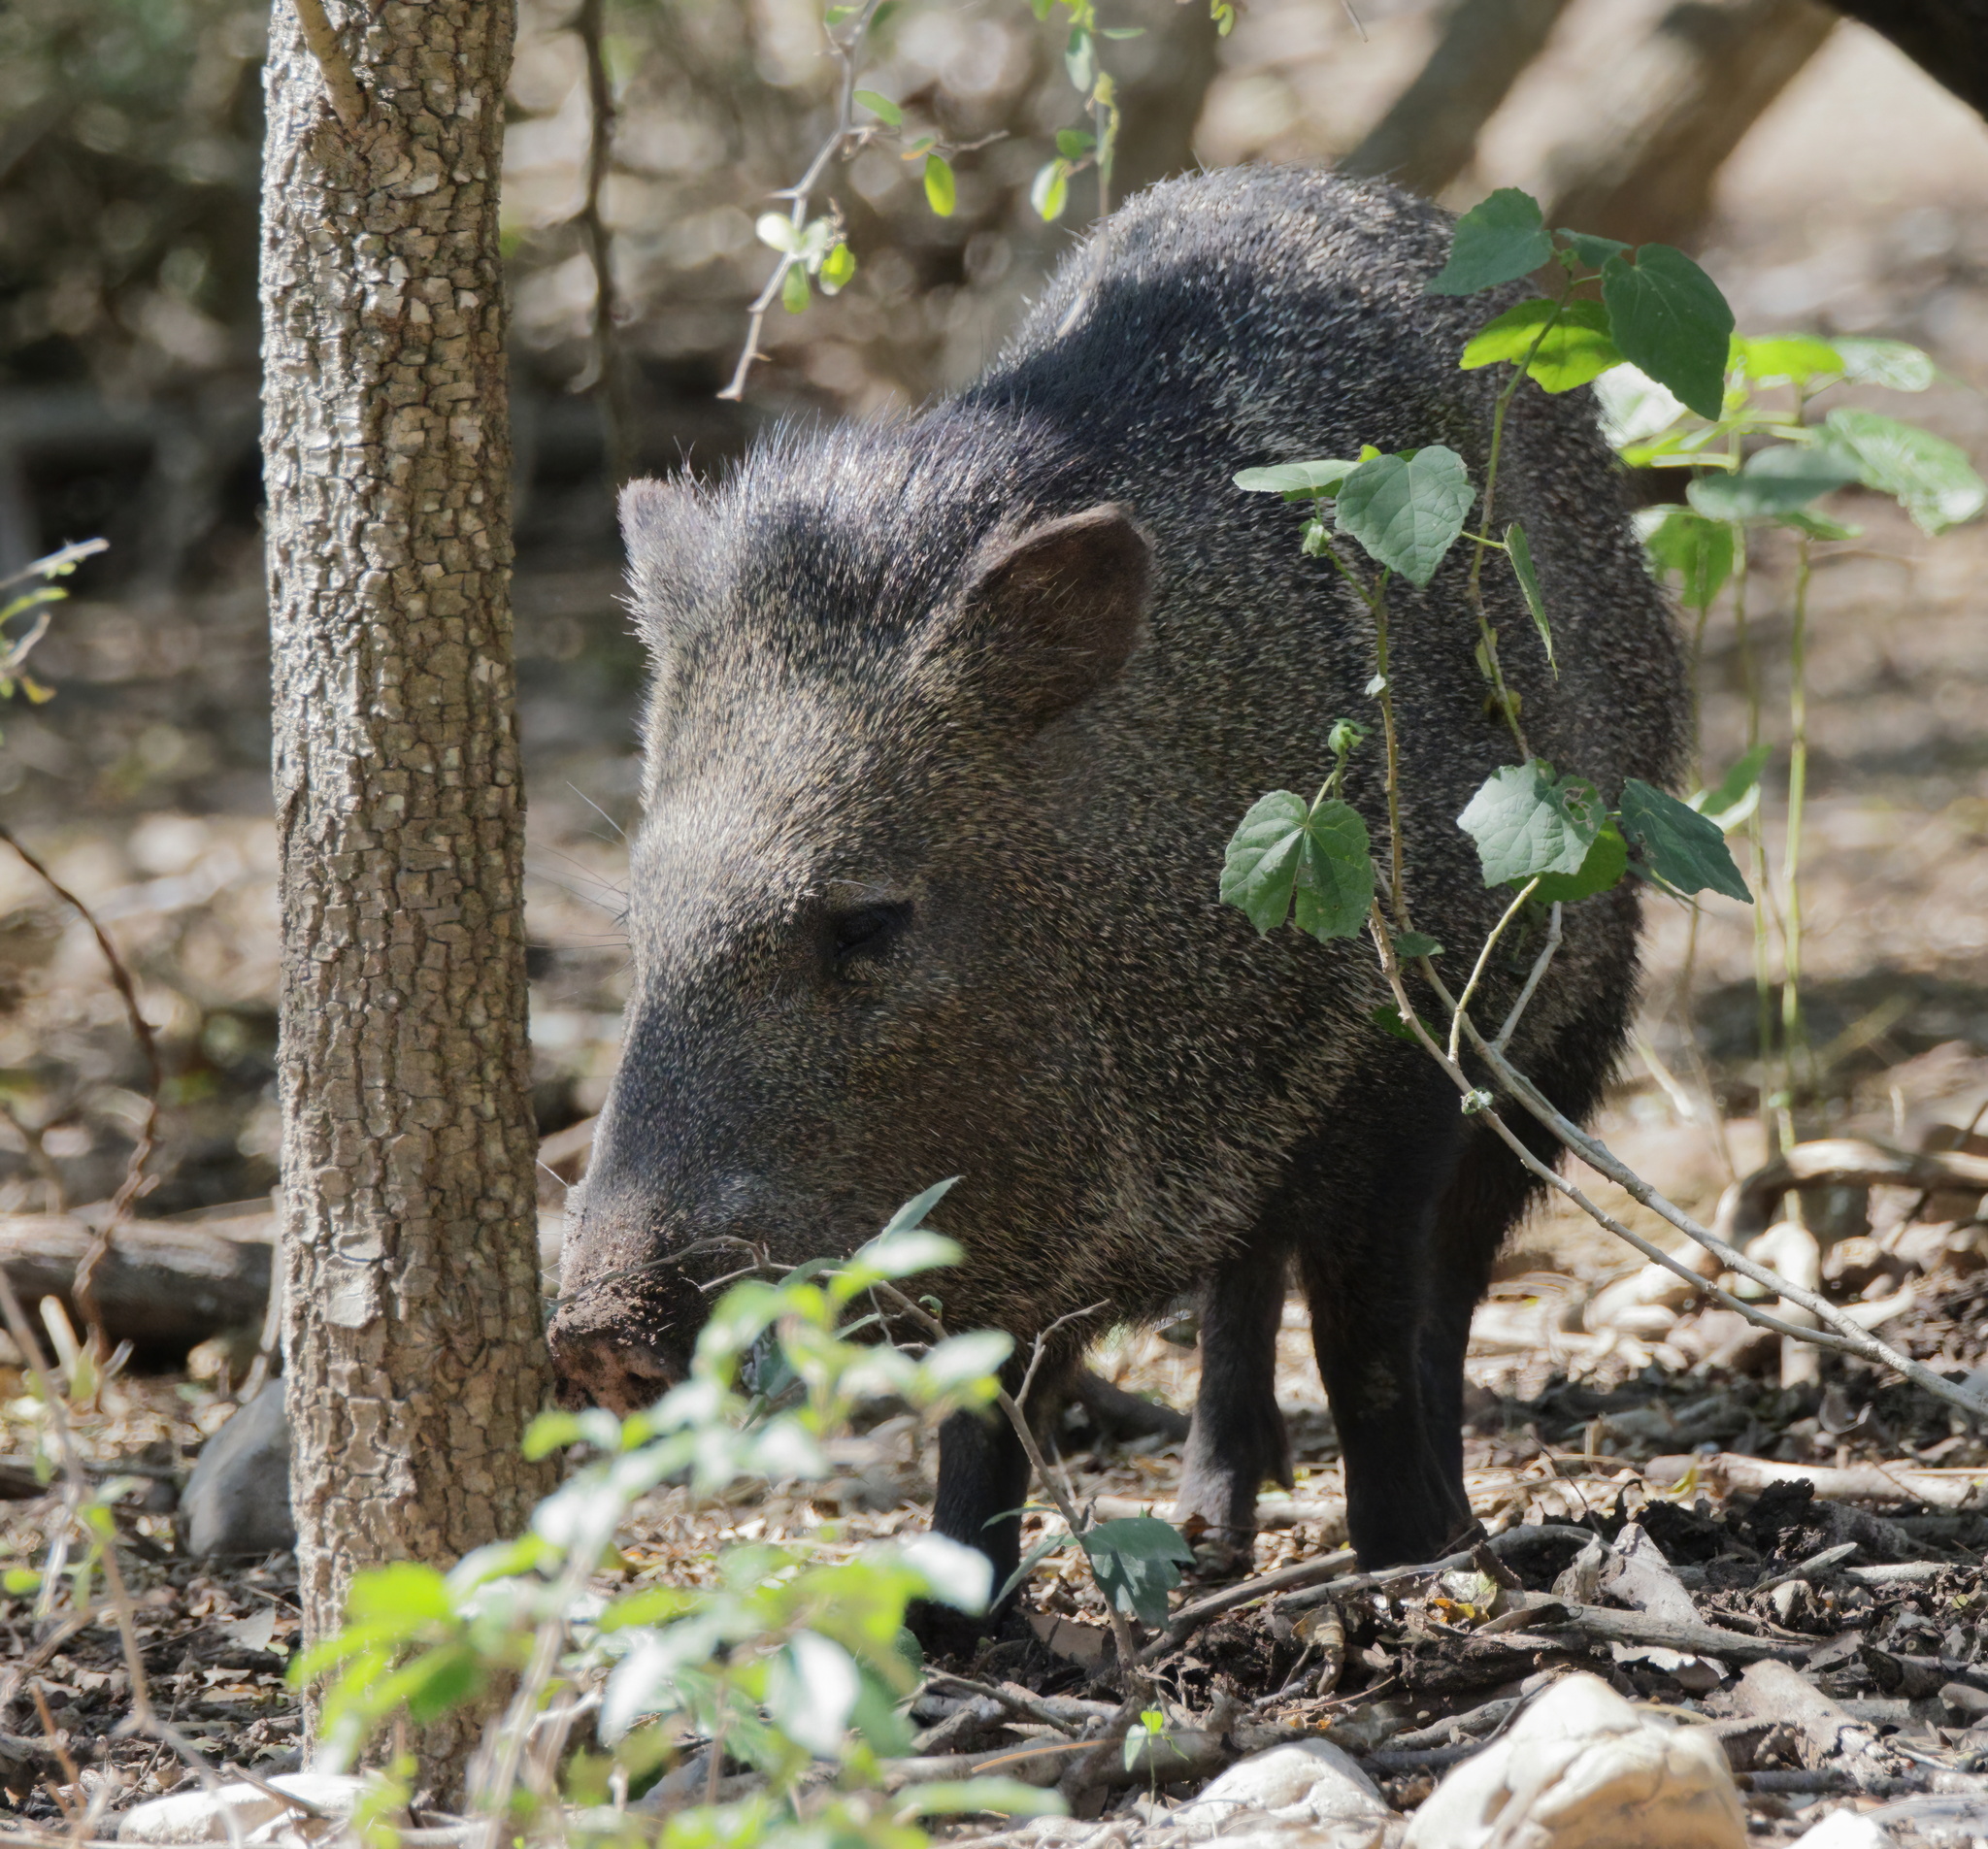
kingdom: Animalia
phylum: Chordata
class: Mammalia
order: Artiodactyla
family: Tayassuidae
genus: Pecari
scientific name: Pecari tajacu
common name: Collared peccary
